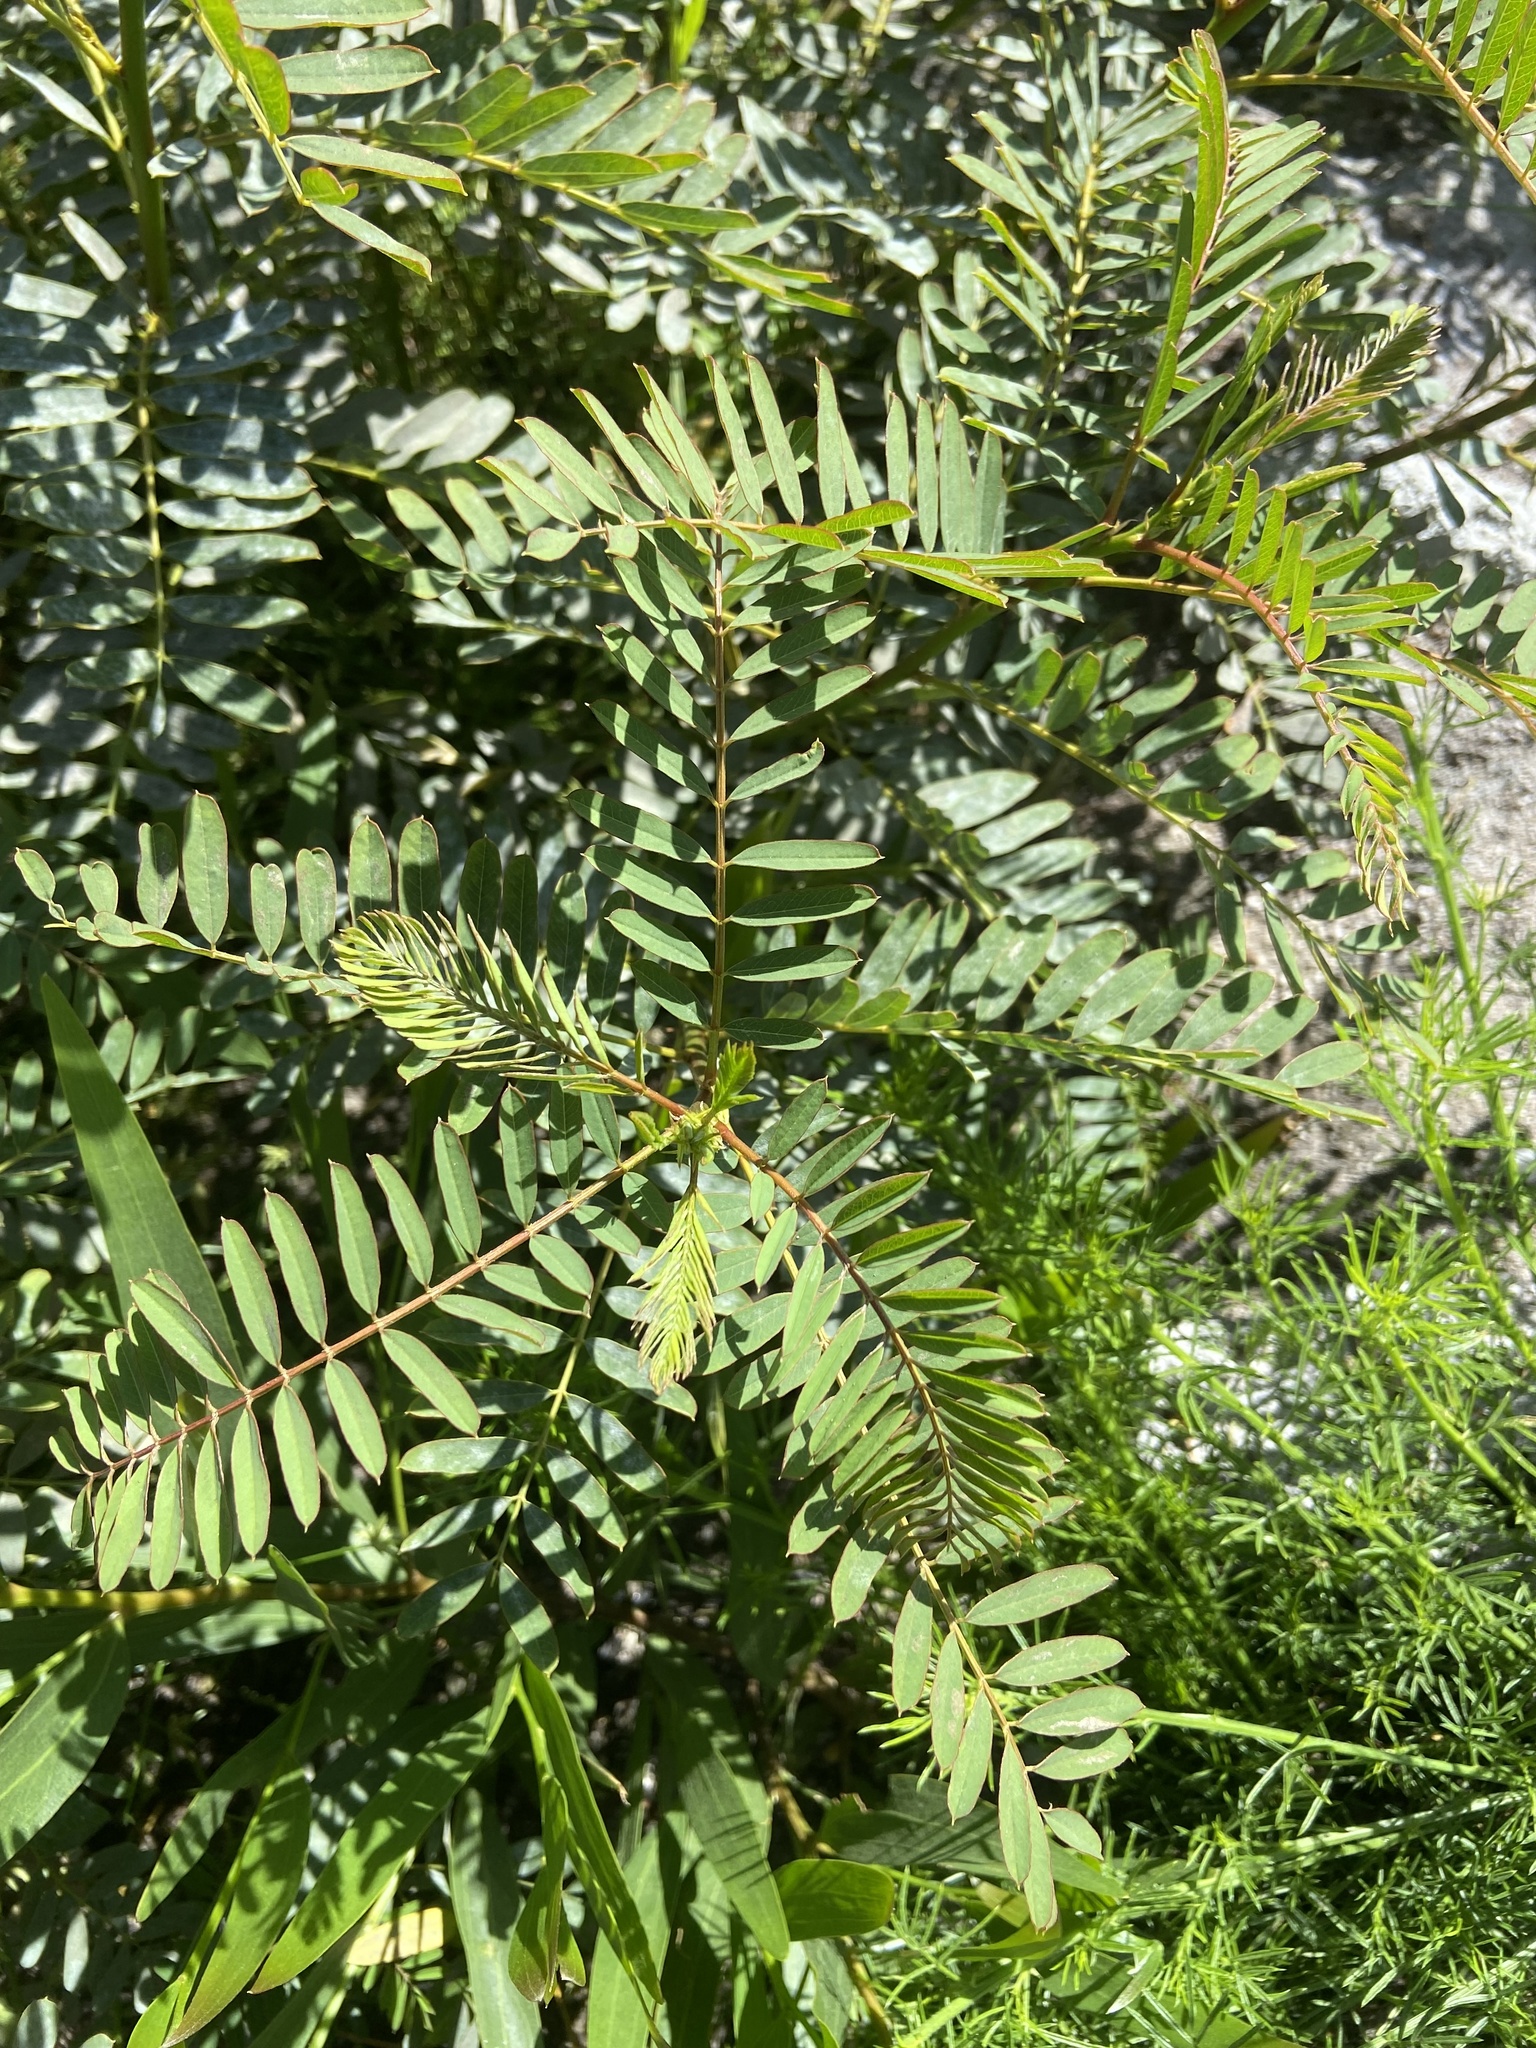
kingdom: Plantae
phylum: Tracheophyta
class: Magnoliopsida
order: Fabales
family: Fabaceae
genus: Sesbania
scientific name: Sesbania punicea
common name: Rattlebox
